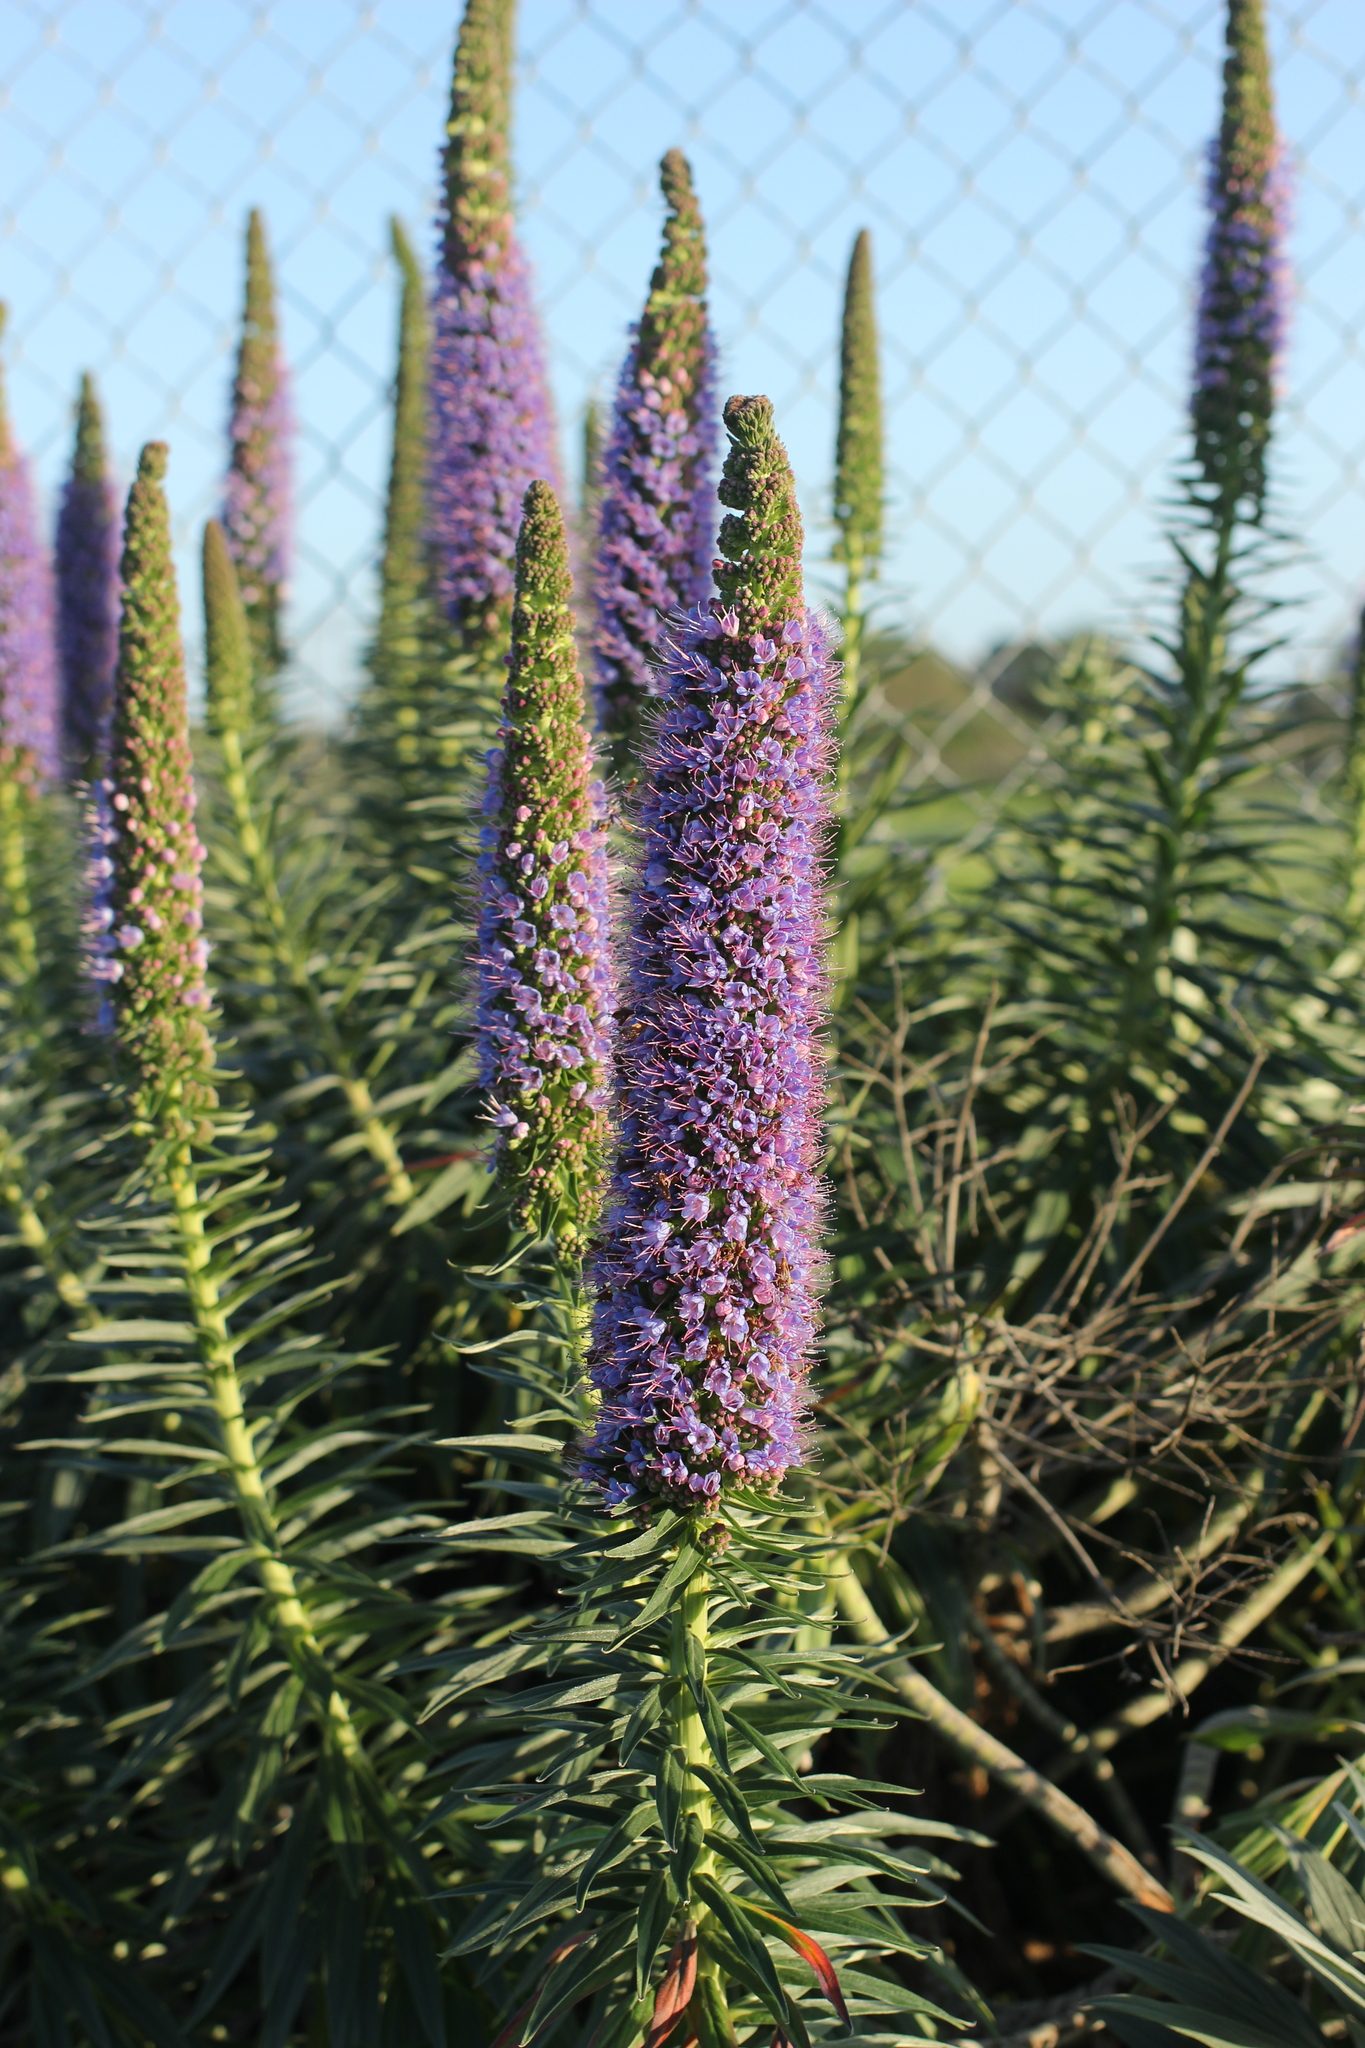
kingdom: Plantae
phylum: Tracheophyta
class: Magnoliopsida
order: Boraginales
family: Boraginaceae
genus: Echium
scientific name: Echium candicans
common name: Pride of madeira
